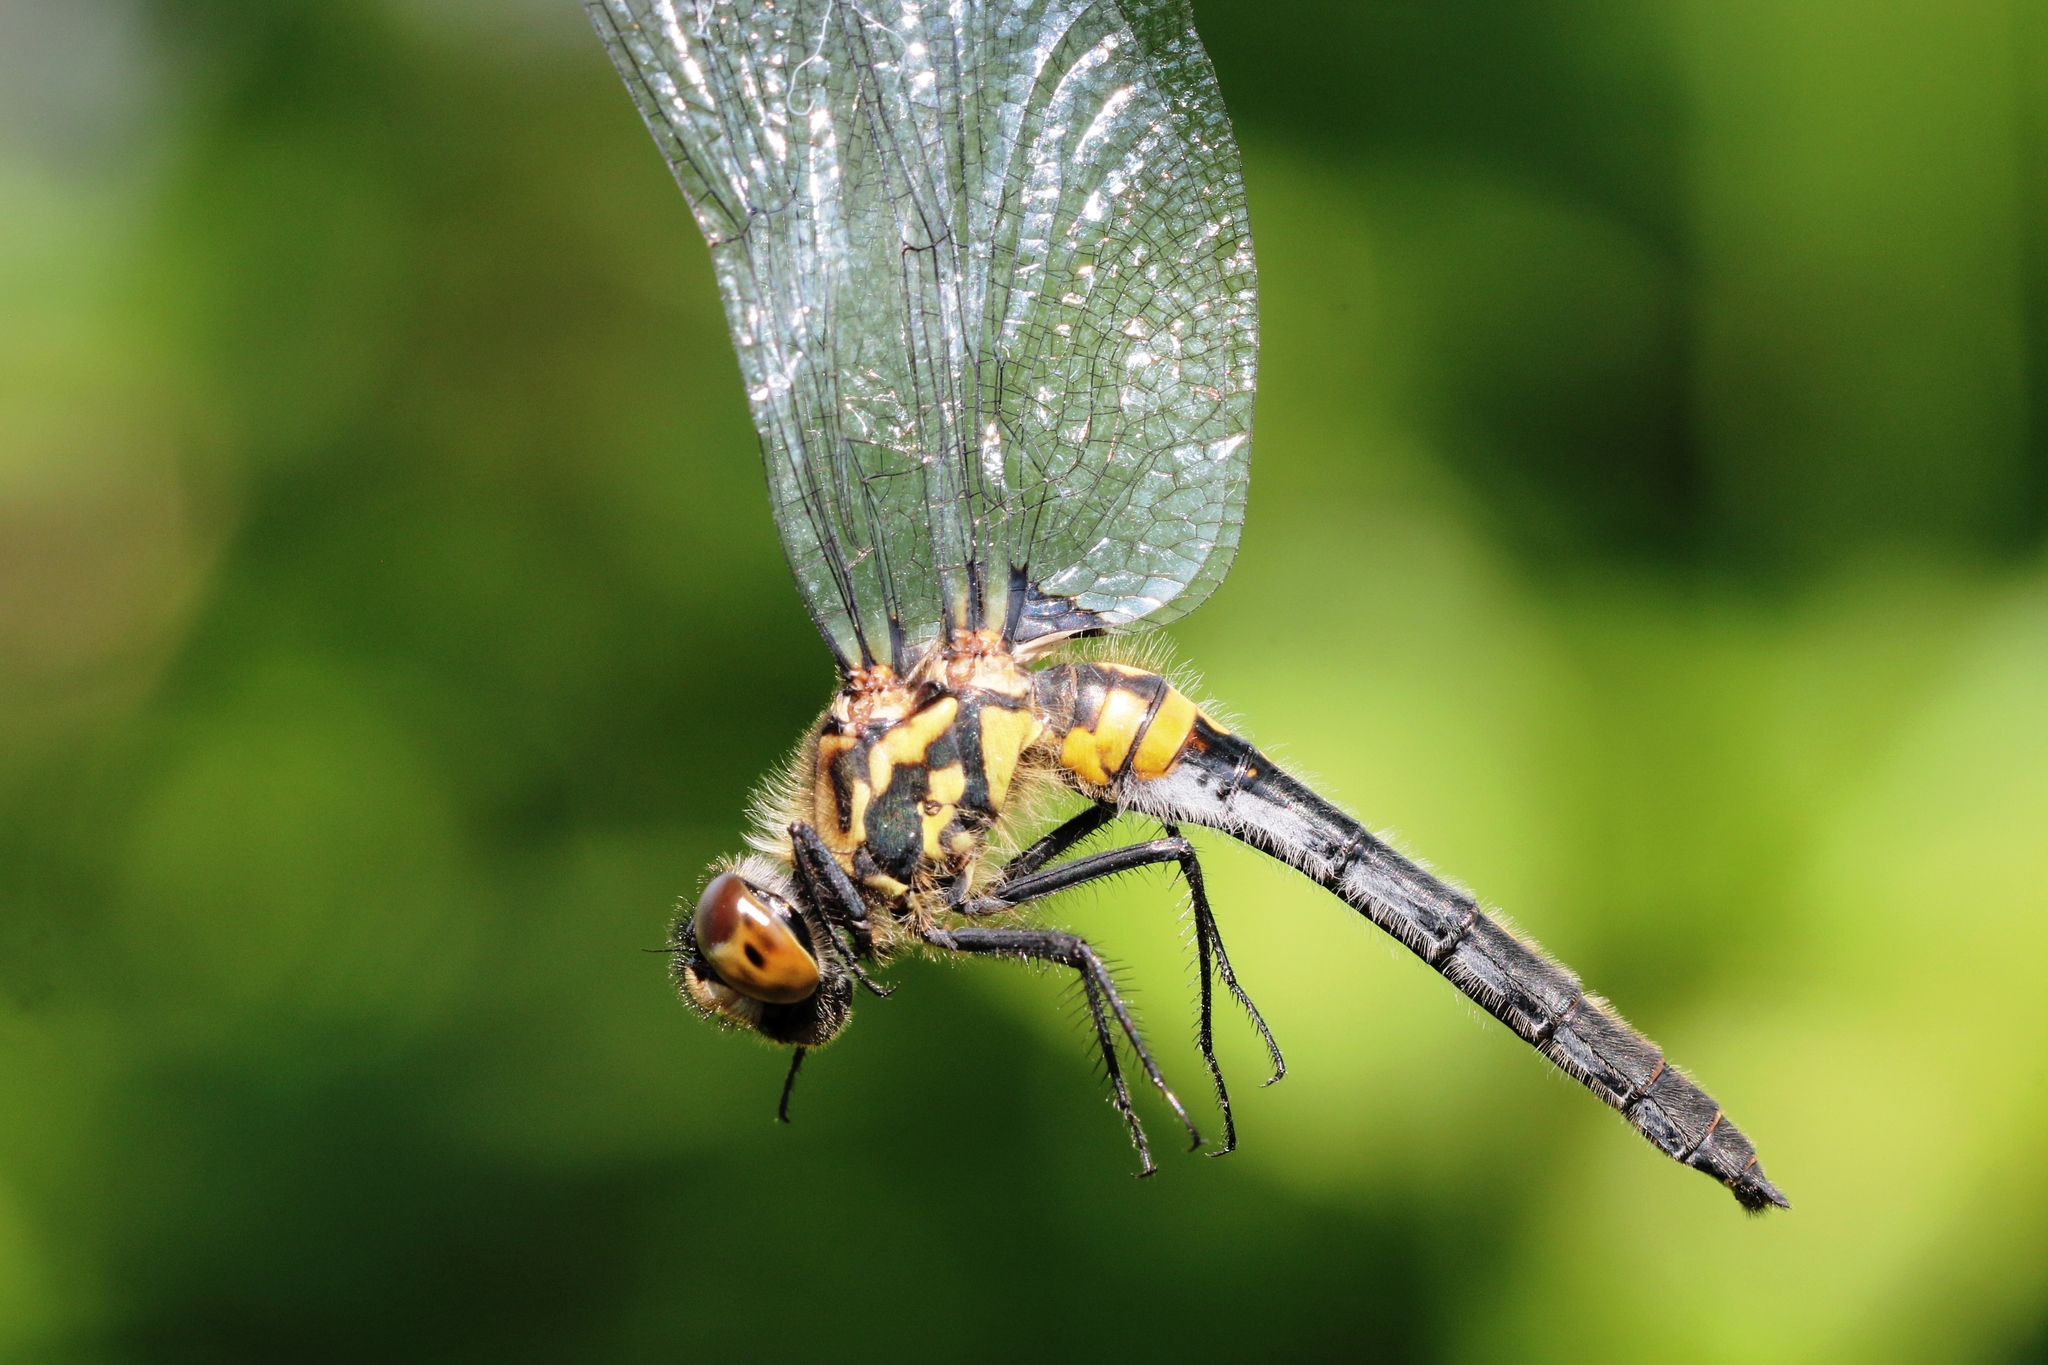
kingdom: Animalia
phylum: Arthropoda
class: Insecta
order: Odonata
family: Libellulidae
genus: Leucorrhinia
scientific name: Leucorrhinia intacta
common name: Dot-tailed whiteface
